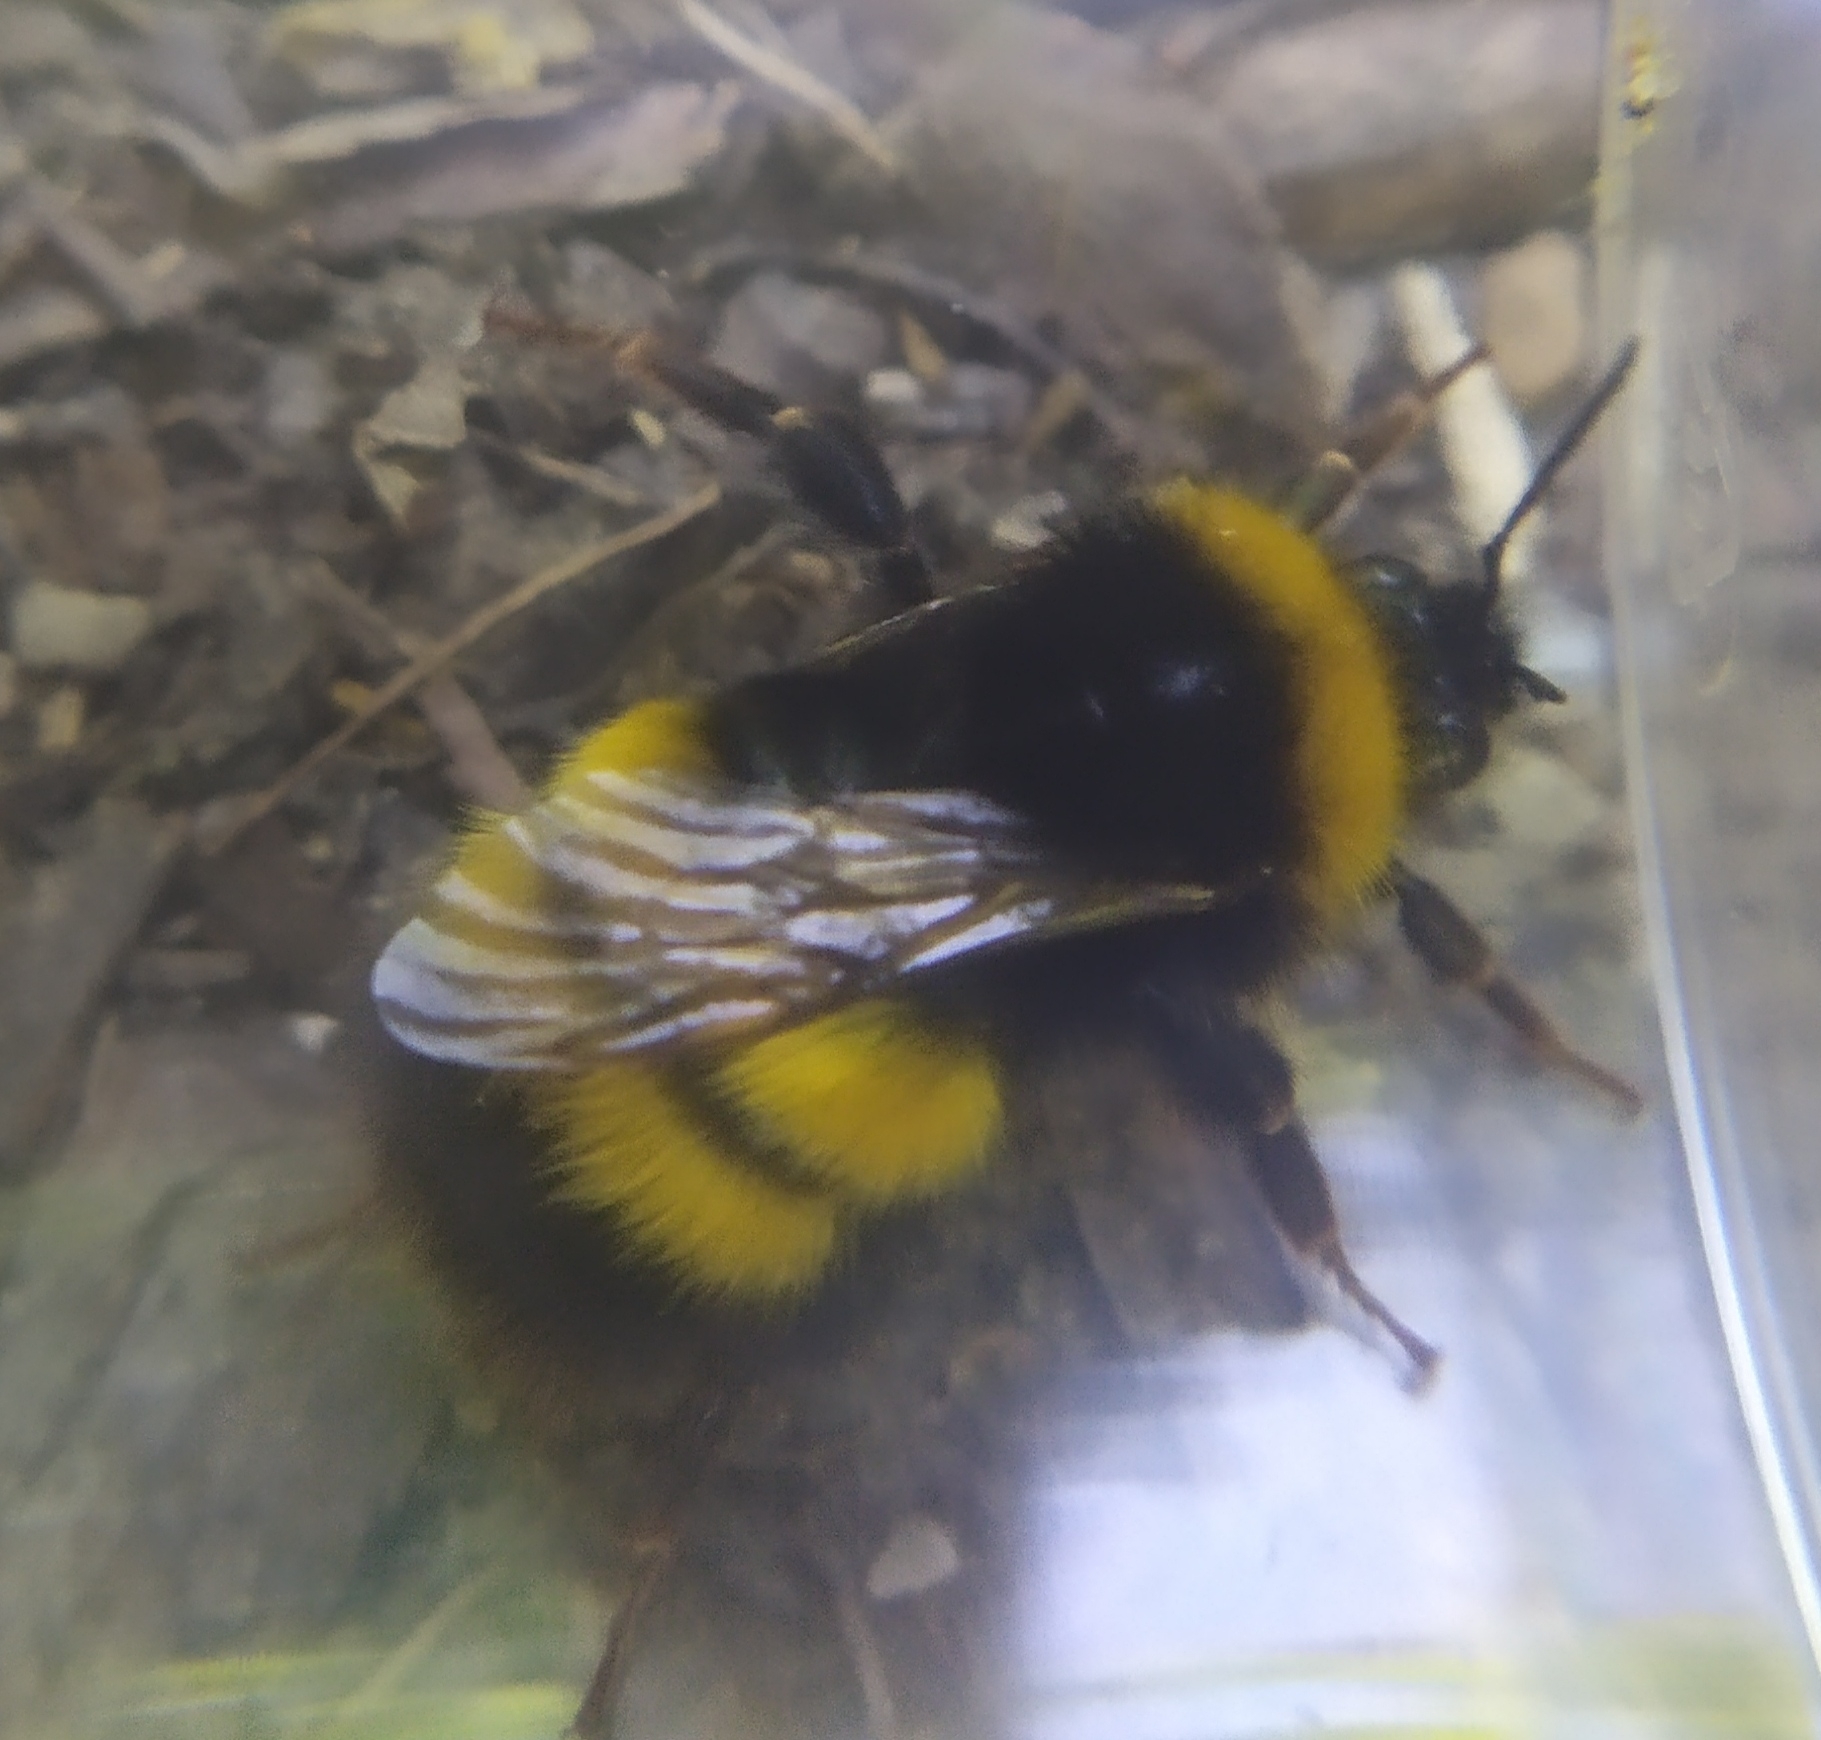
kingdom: Animalia
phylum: Arthropoda
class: Insecta
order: Hymenoptera
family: Apidae
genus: Bombus
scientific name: Bombus haematurus
